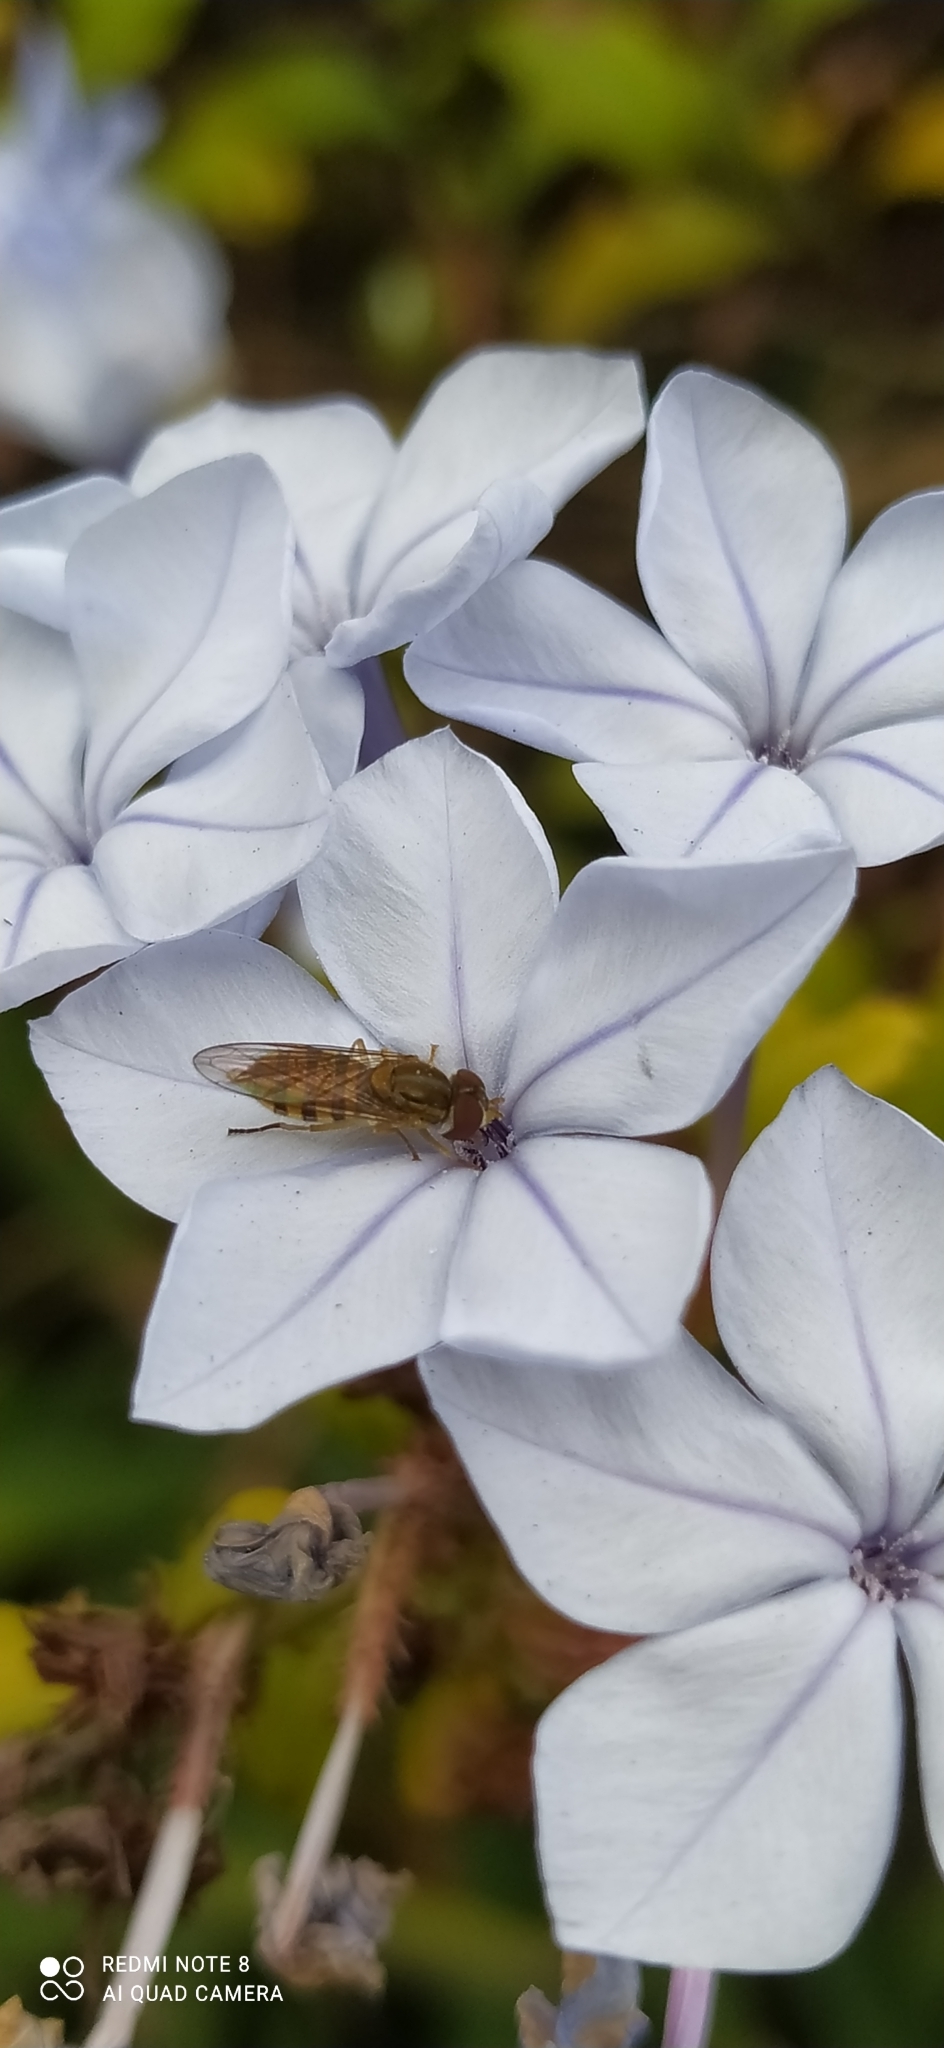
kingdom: Animalia
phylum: Arthropoda
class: Insecta
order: Diptera
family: Syrphidae
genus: Toxomerus
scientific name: Toxomerus
